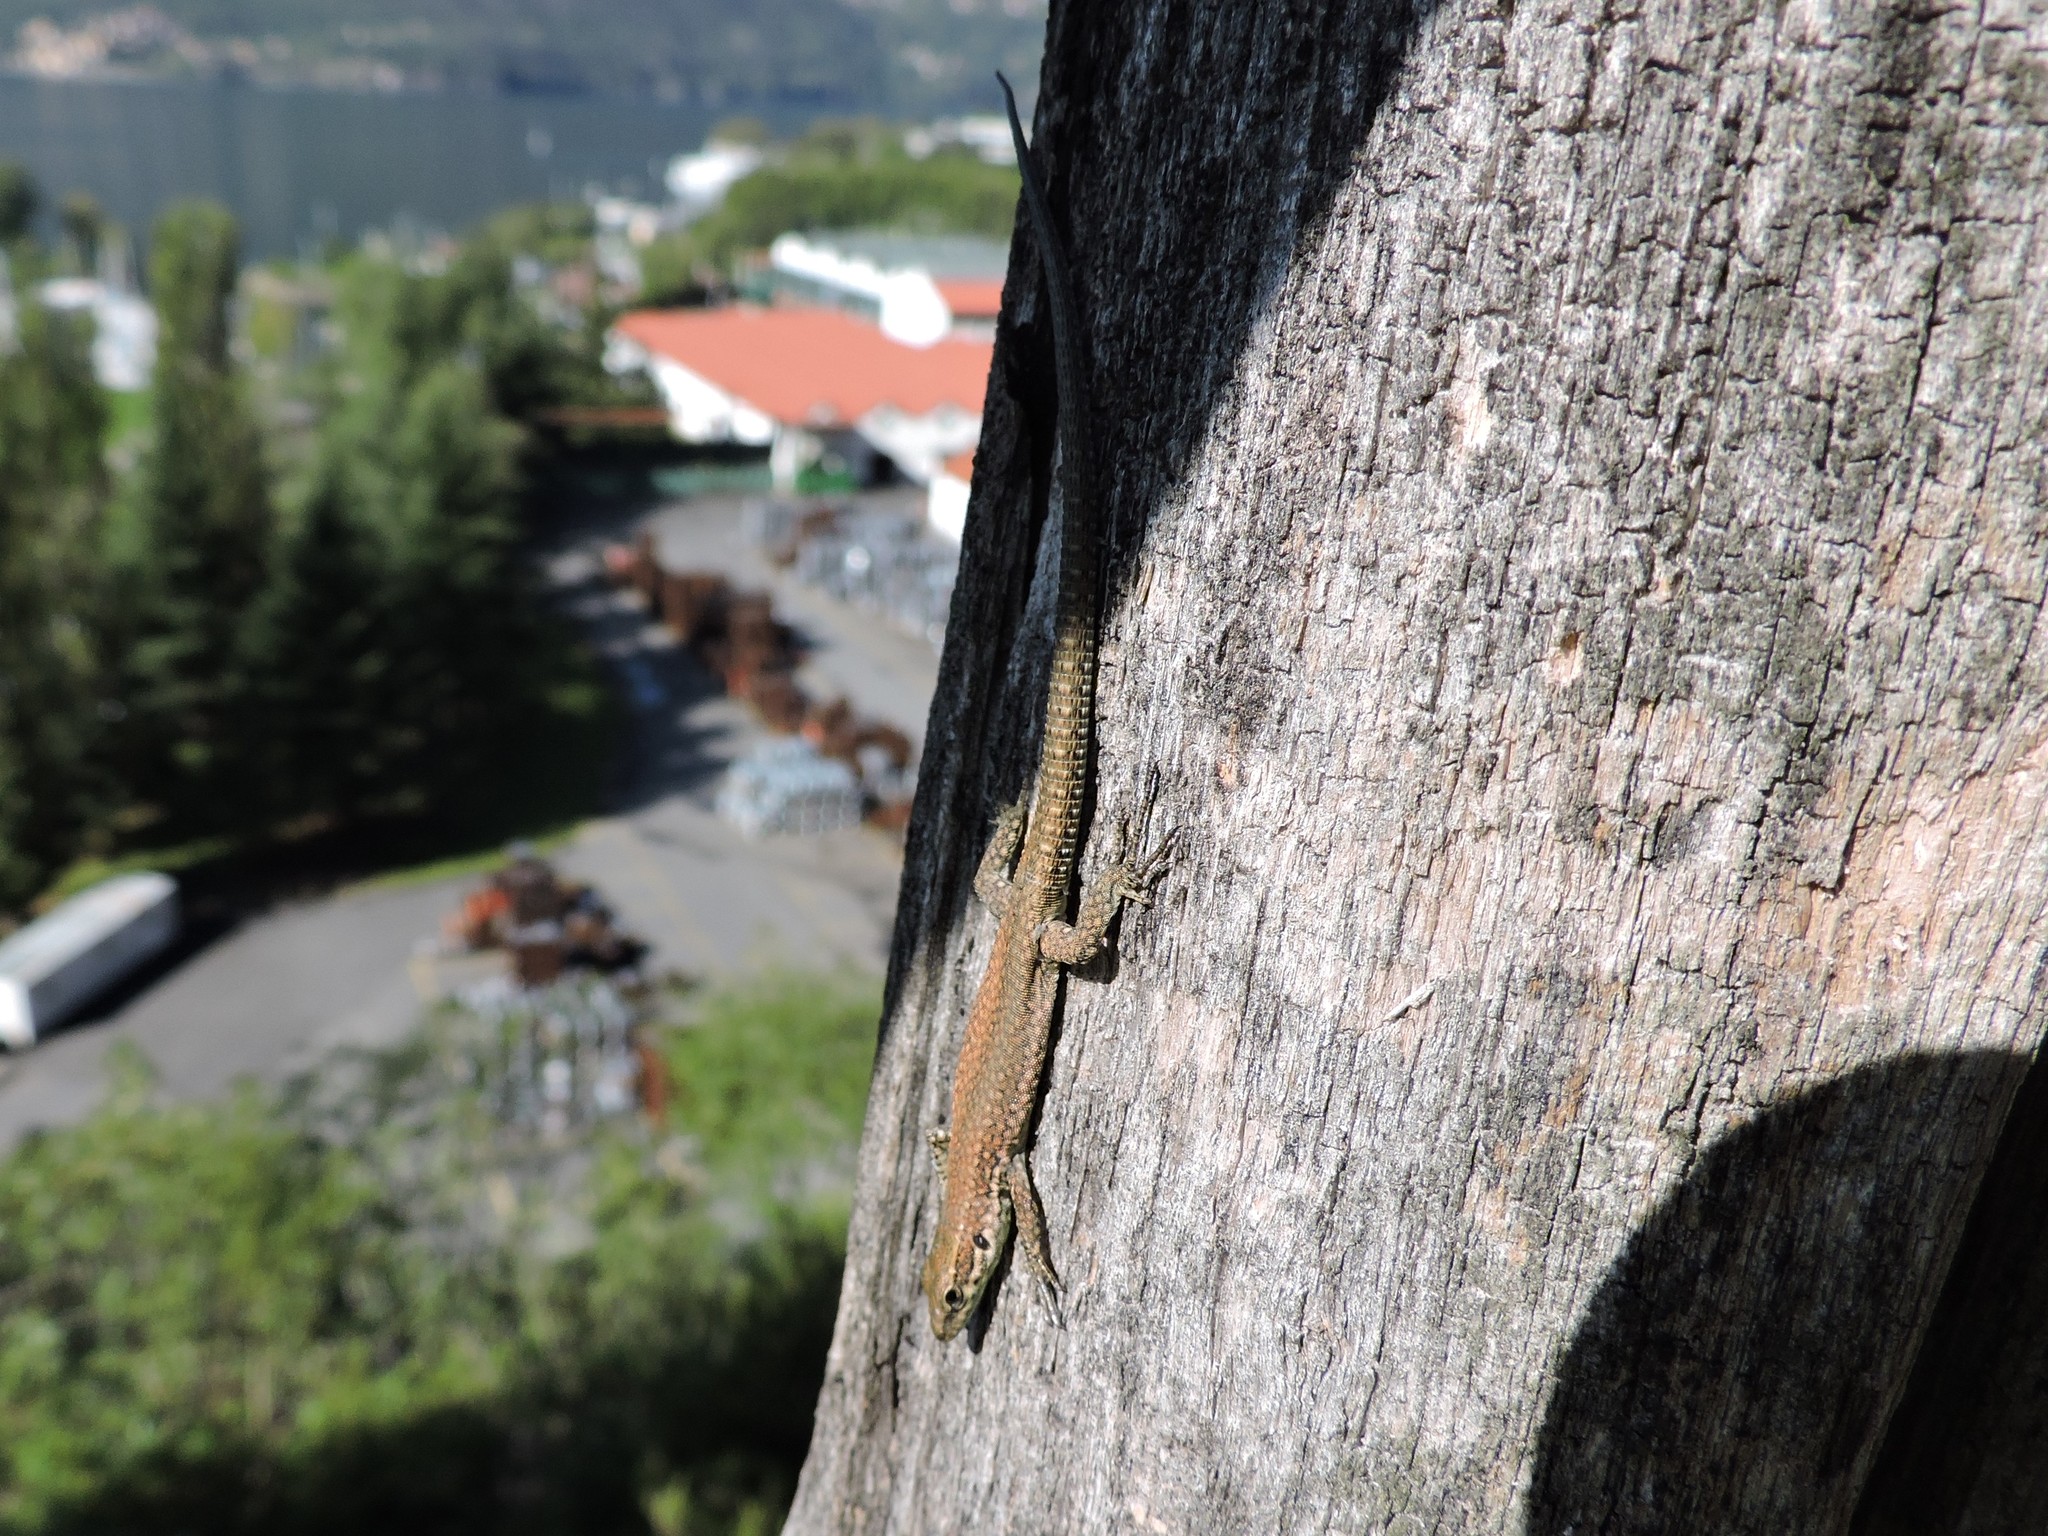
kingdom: Animalia
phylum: Chordata
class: Squamata
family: Lacertidae
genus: Podarcis
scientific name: Podarcis muralis
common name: Common wall lizard
